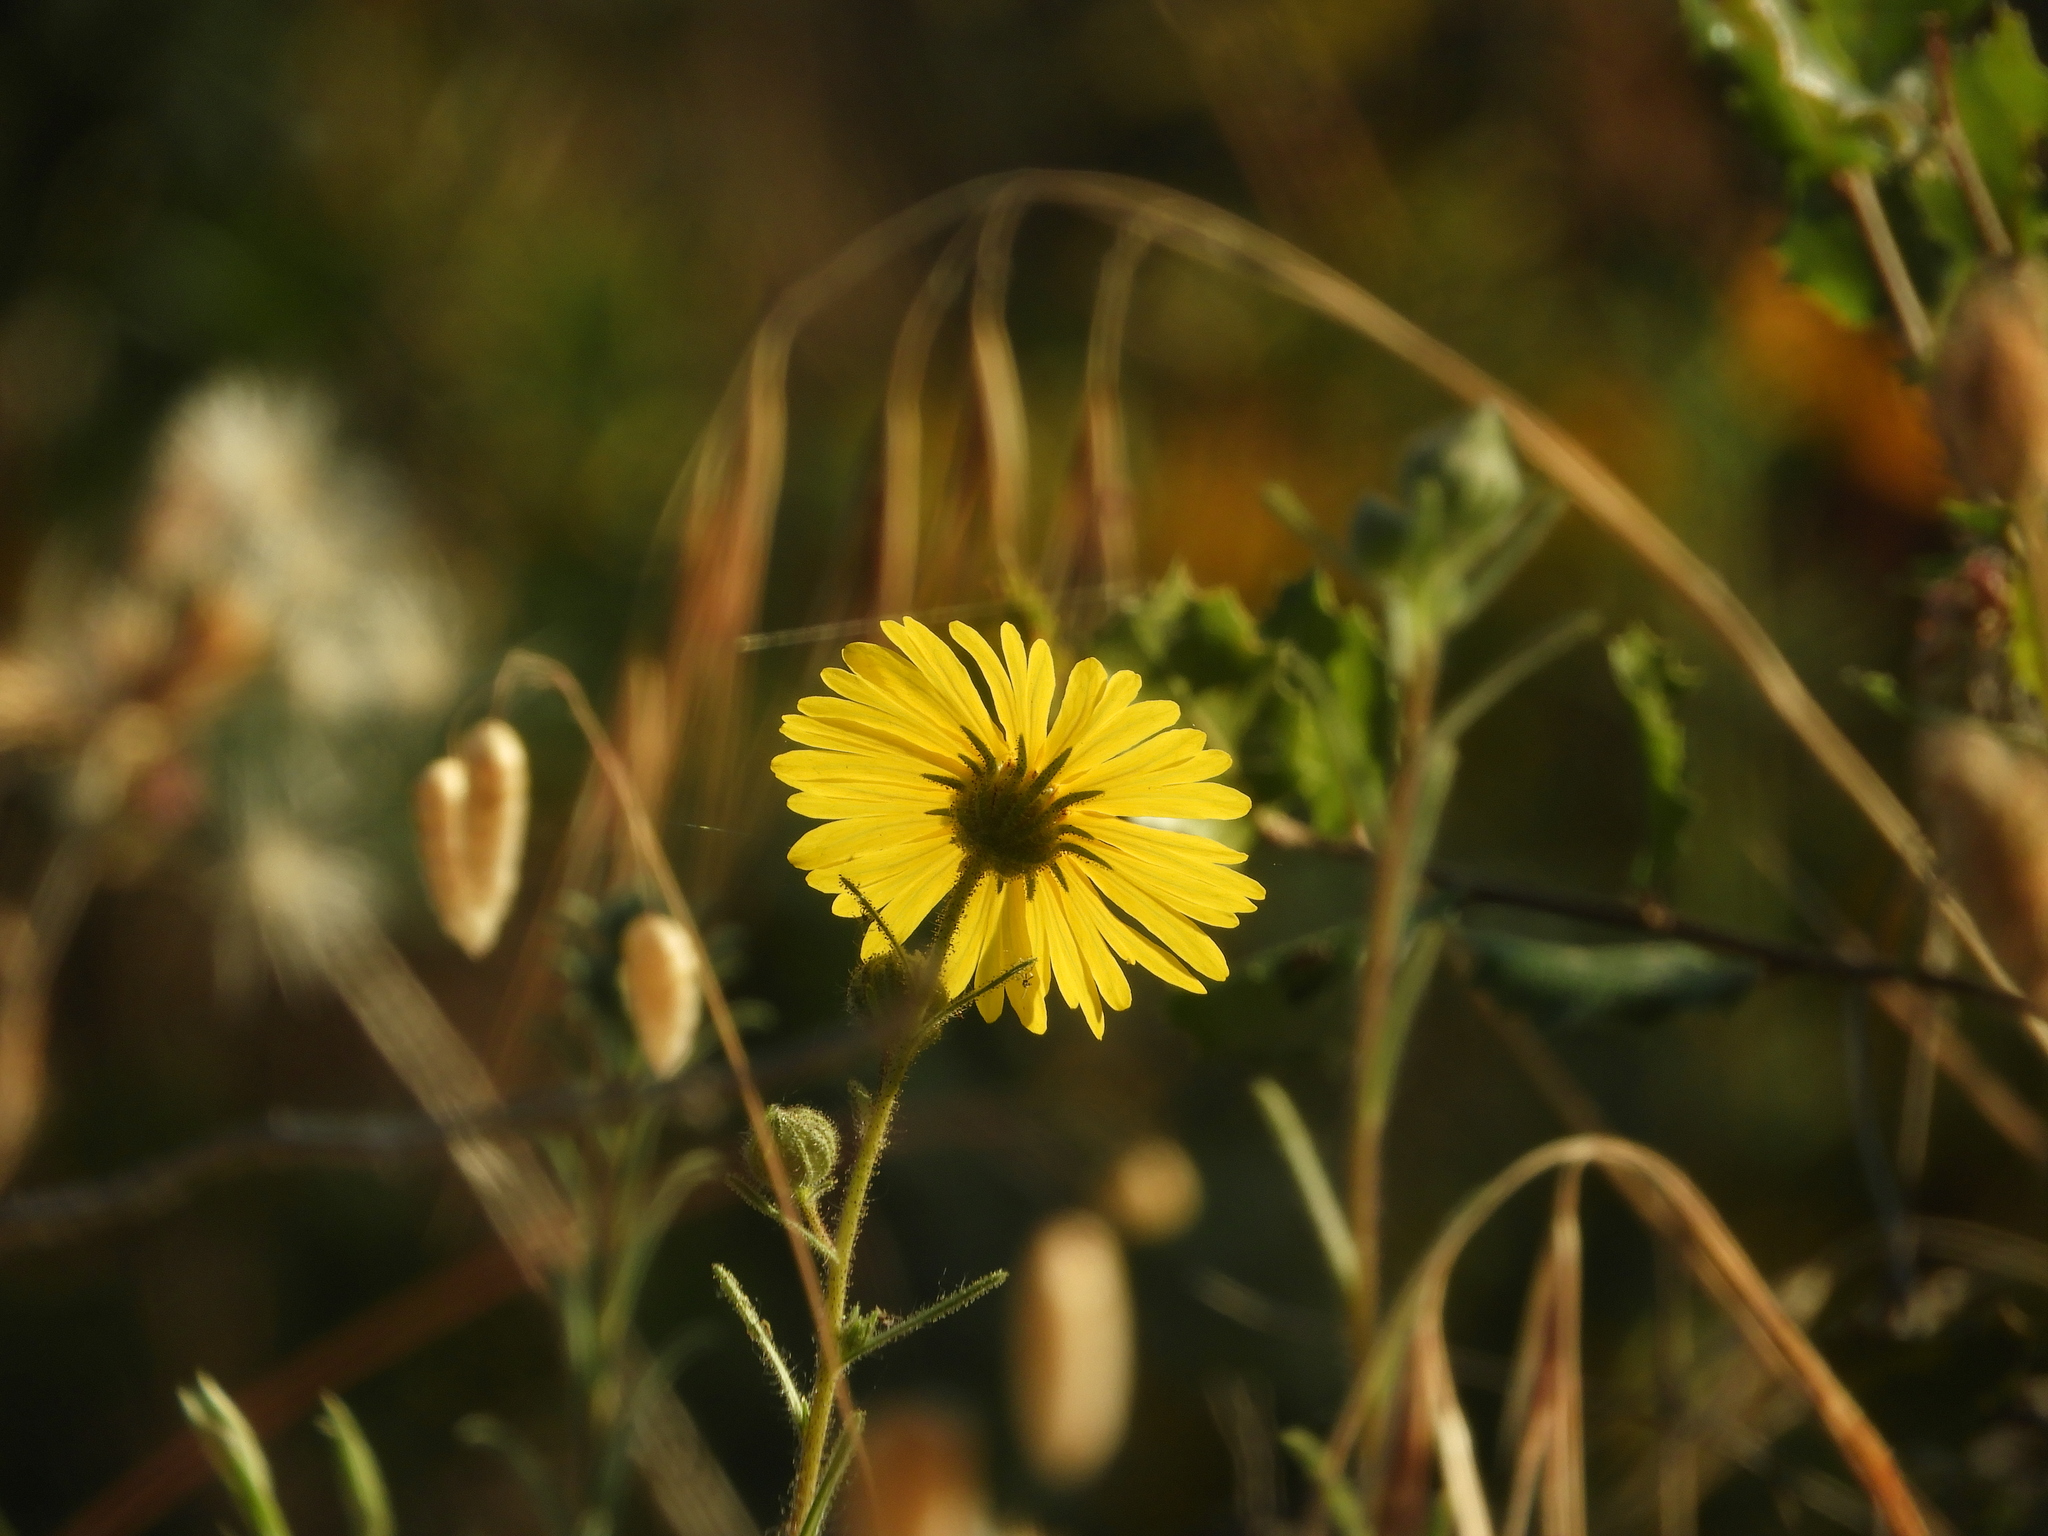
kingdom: Plantae
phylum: Tracheophyta
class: Magnoliopsida
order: Asterales
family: Asteraceae
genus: Madia
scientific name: Madia elegans
